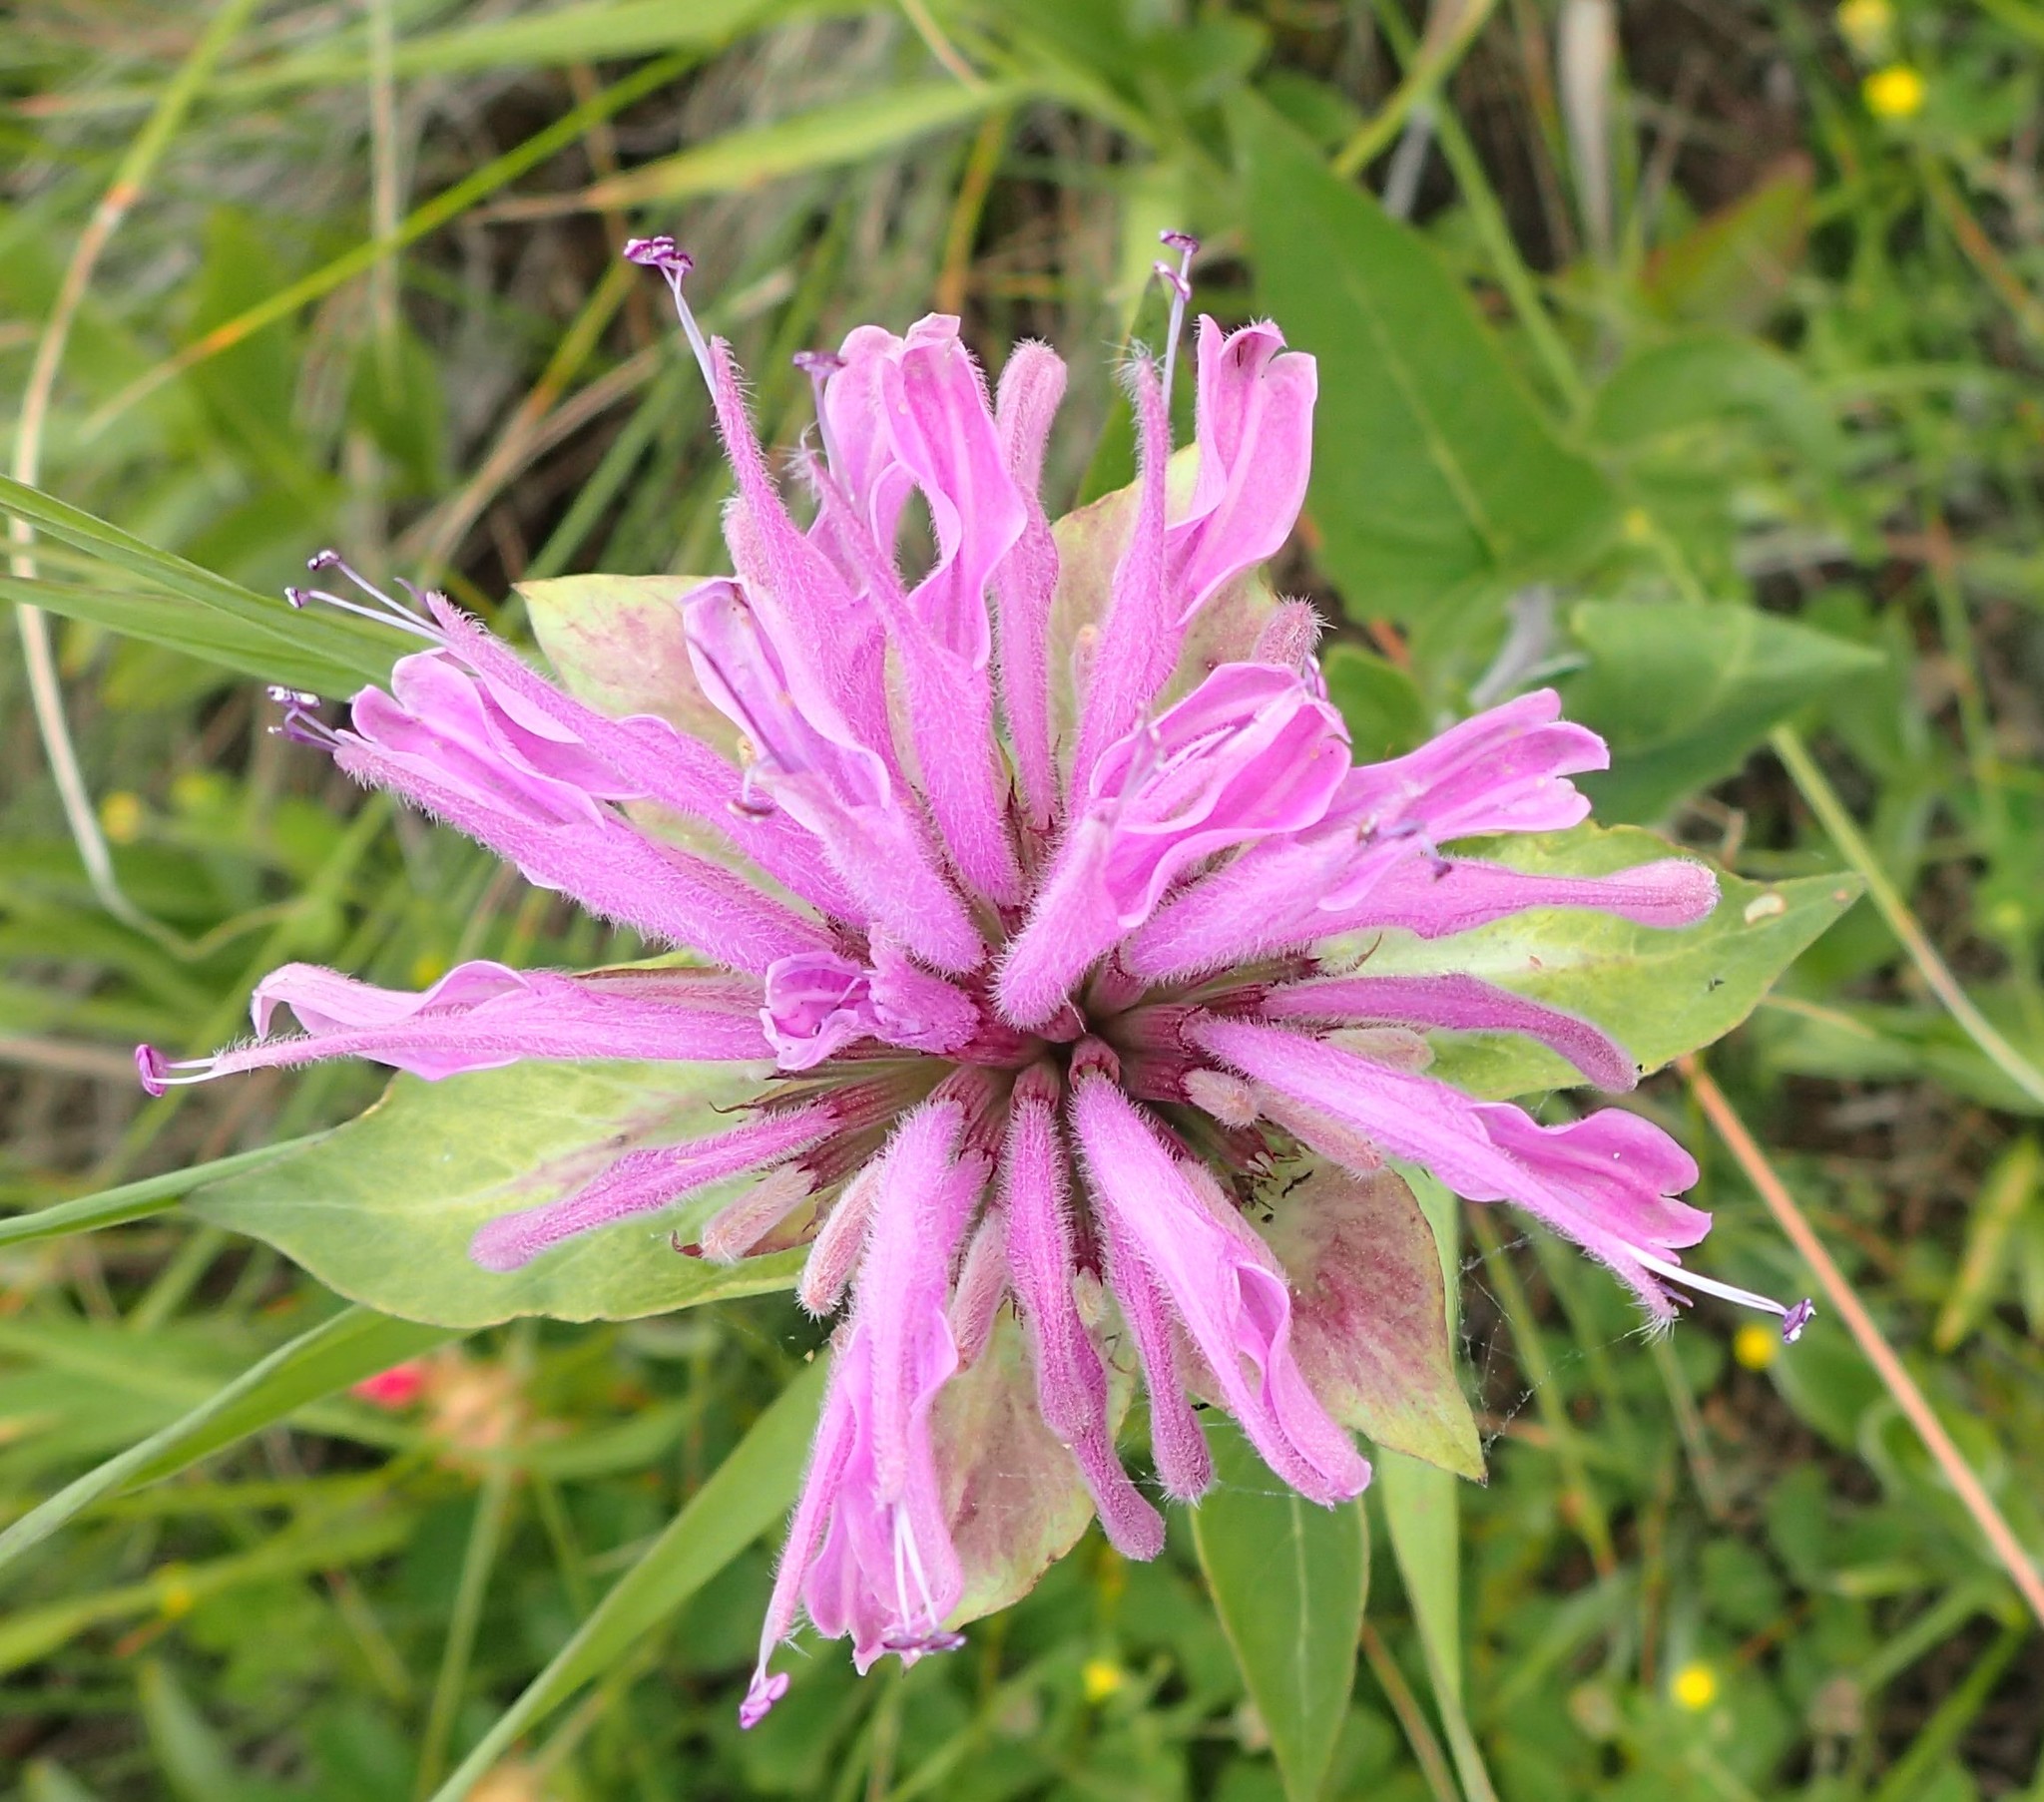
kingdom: Plantae
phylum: Tracheophyta
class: Magnoliopsida
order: Lamiales
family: Lamiaceae
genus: Monarda
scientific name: Monarda fistulosa
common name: Purple beebalm
